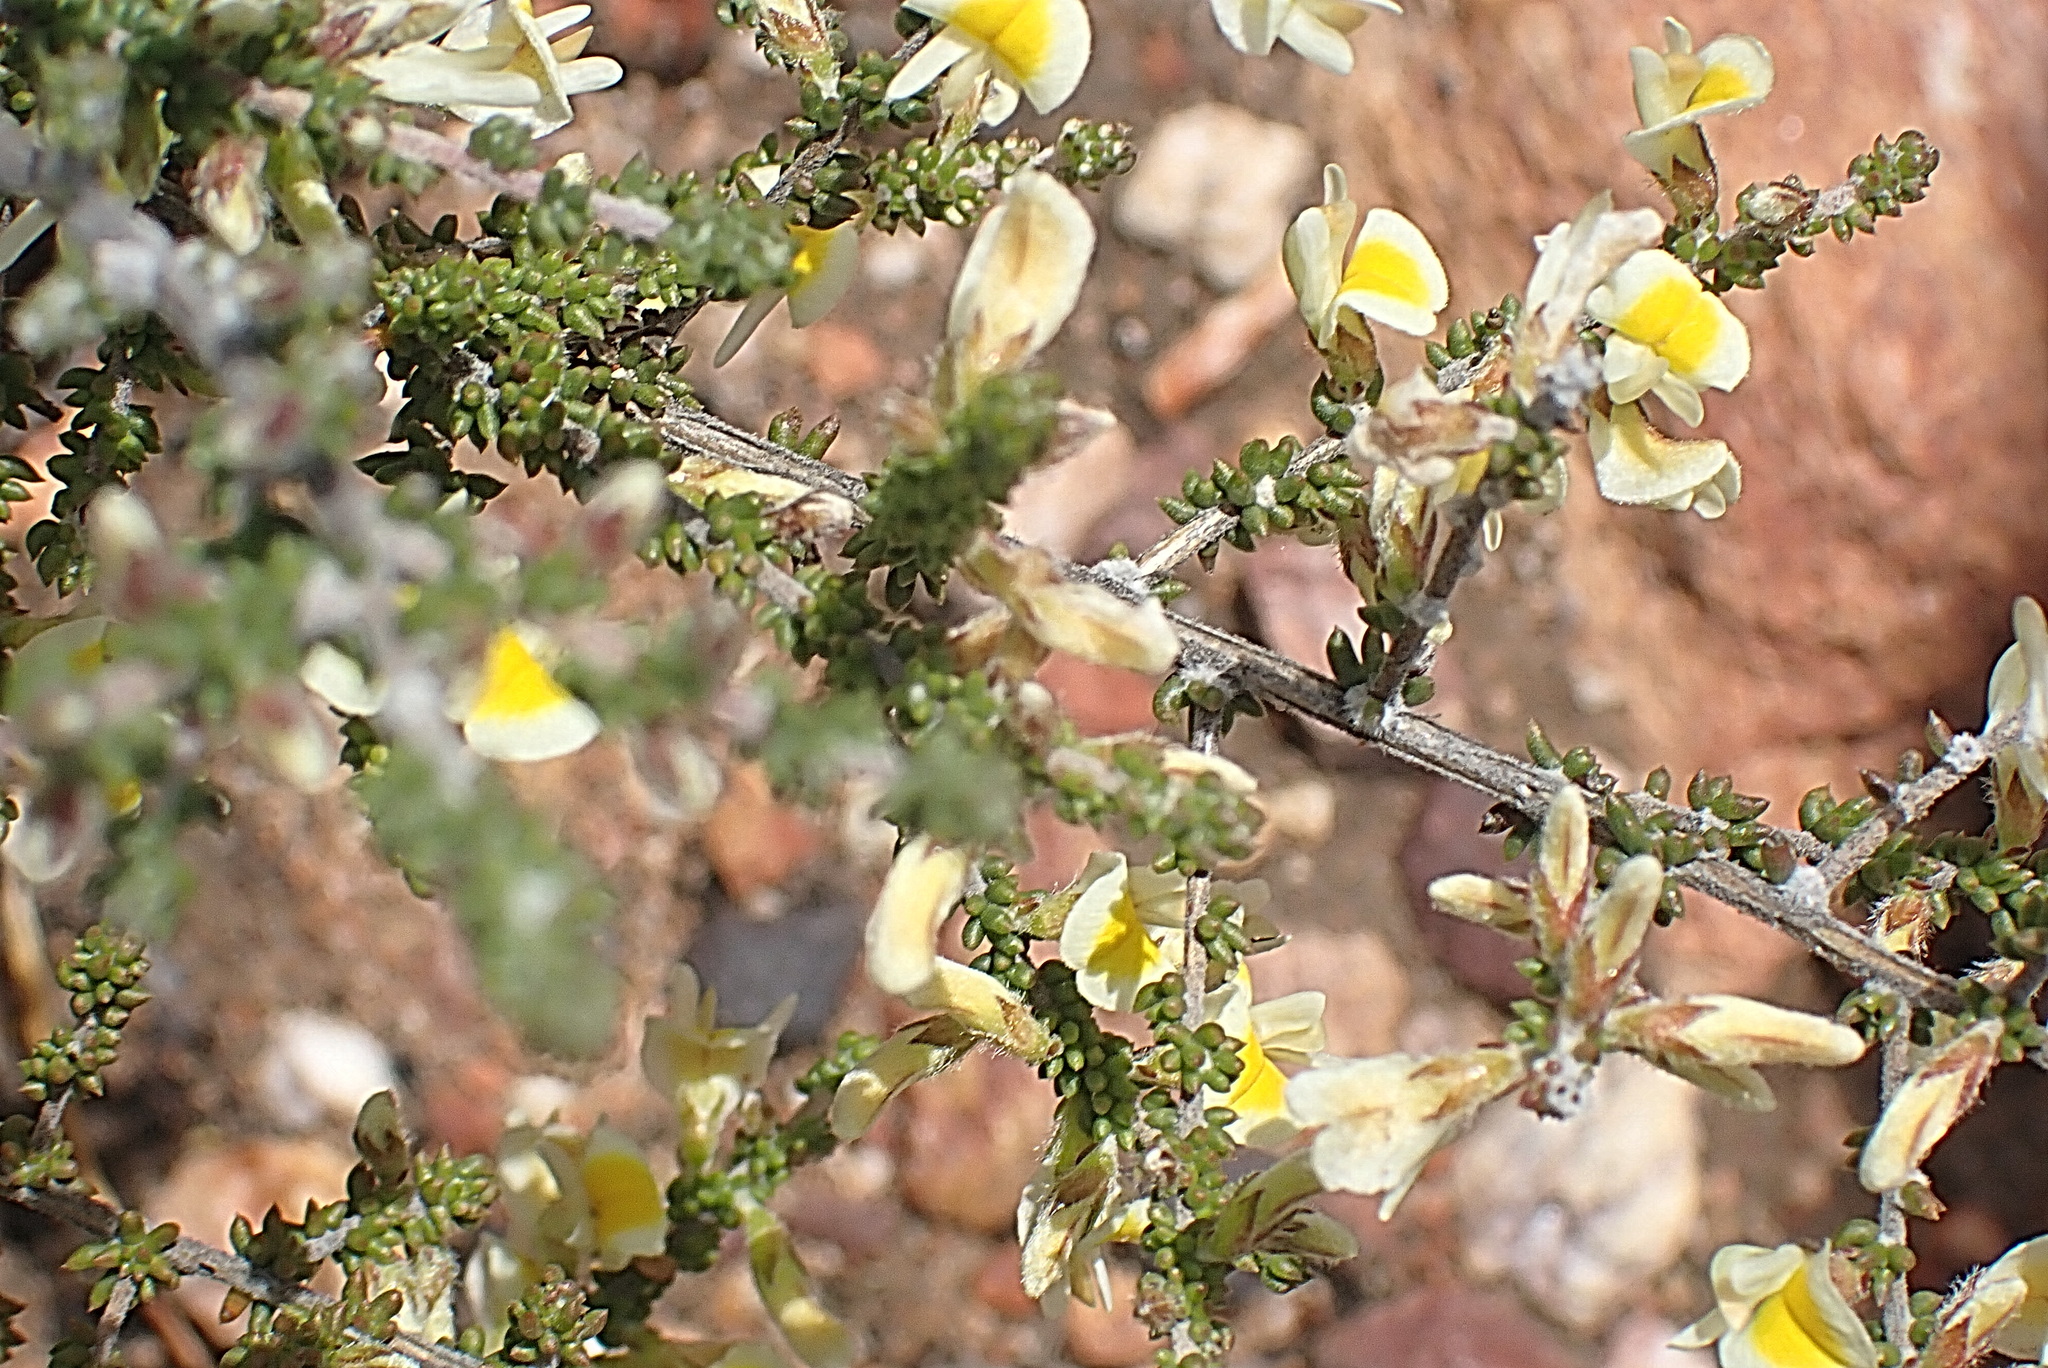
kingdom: Plantae
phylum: Tracheophyta
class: Magnoliopsida
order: Fabales
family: Fabaceae
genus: Aspalathus
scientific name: Aspalathus granulata
